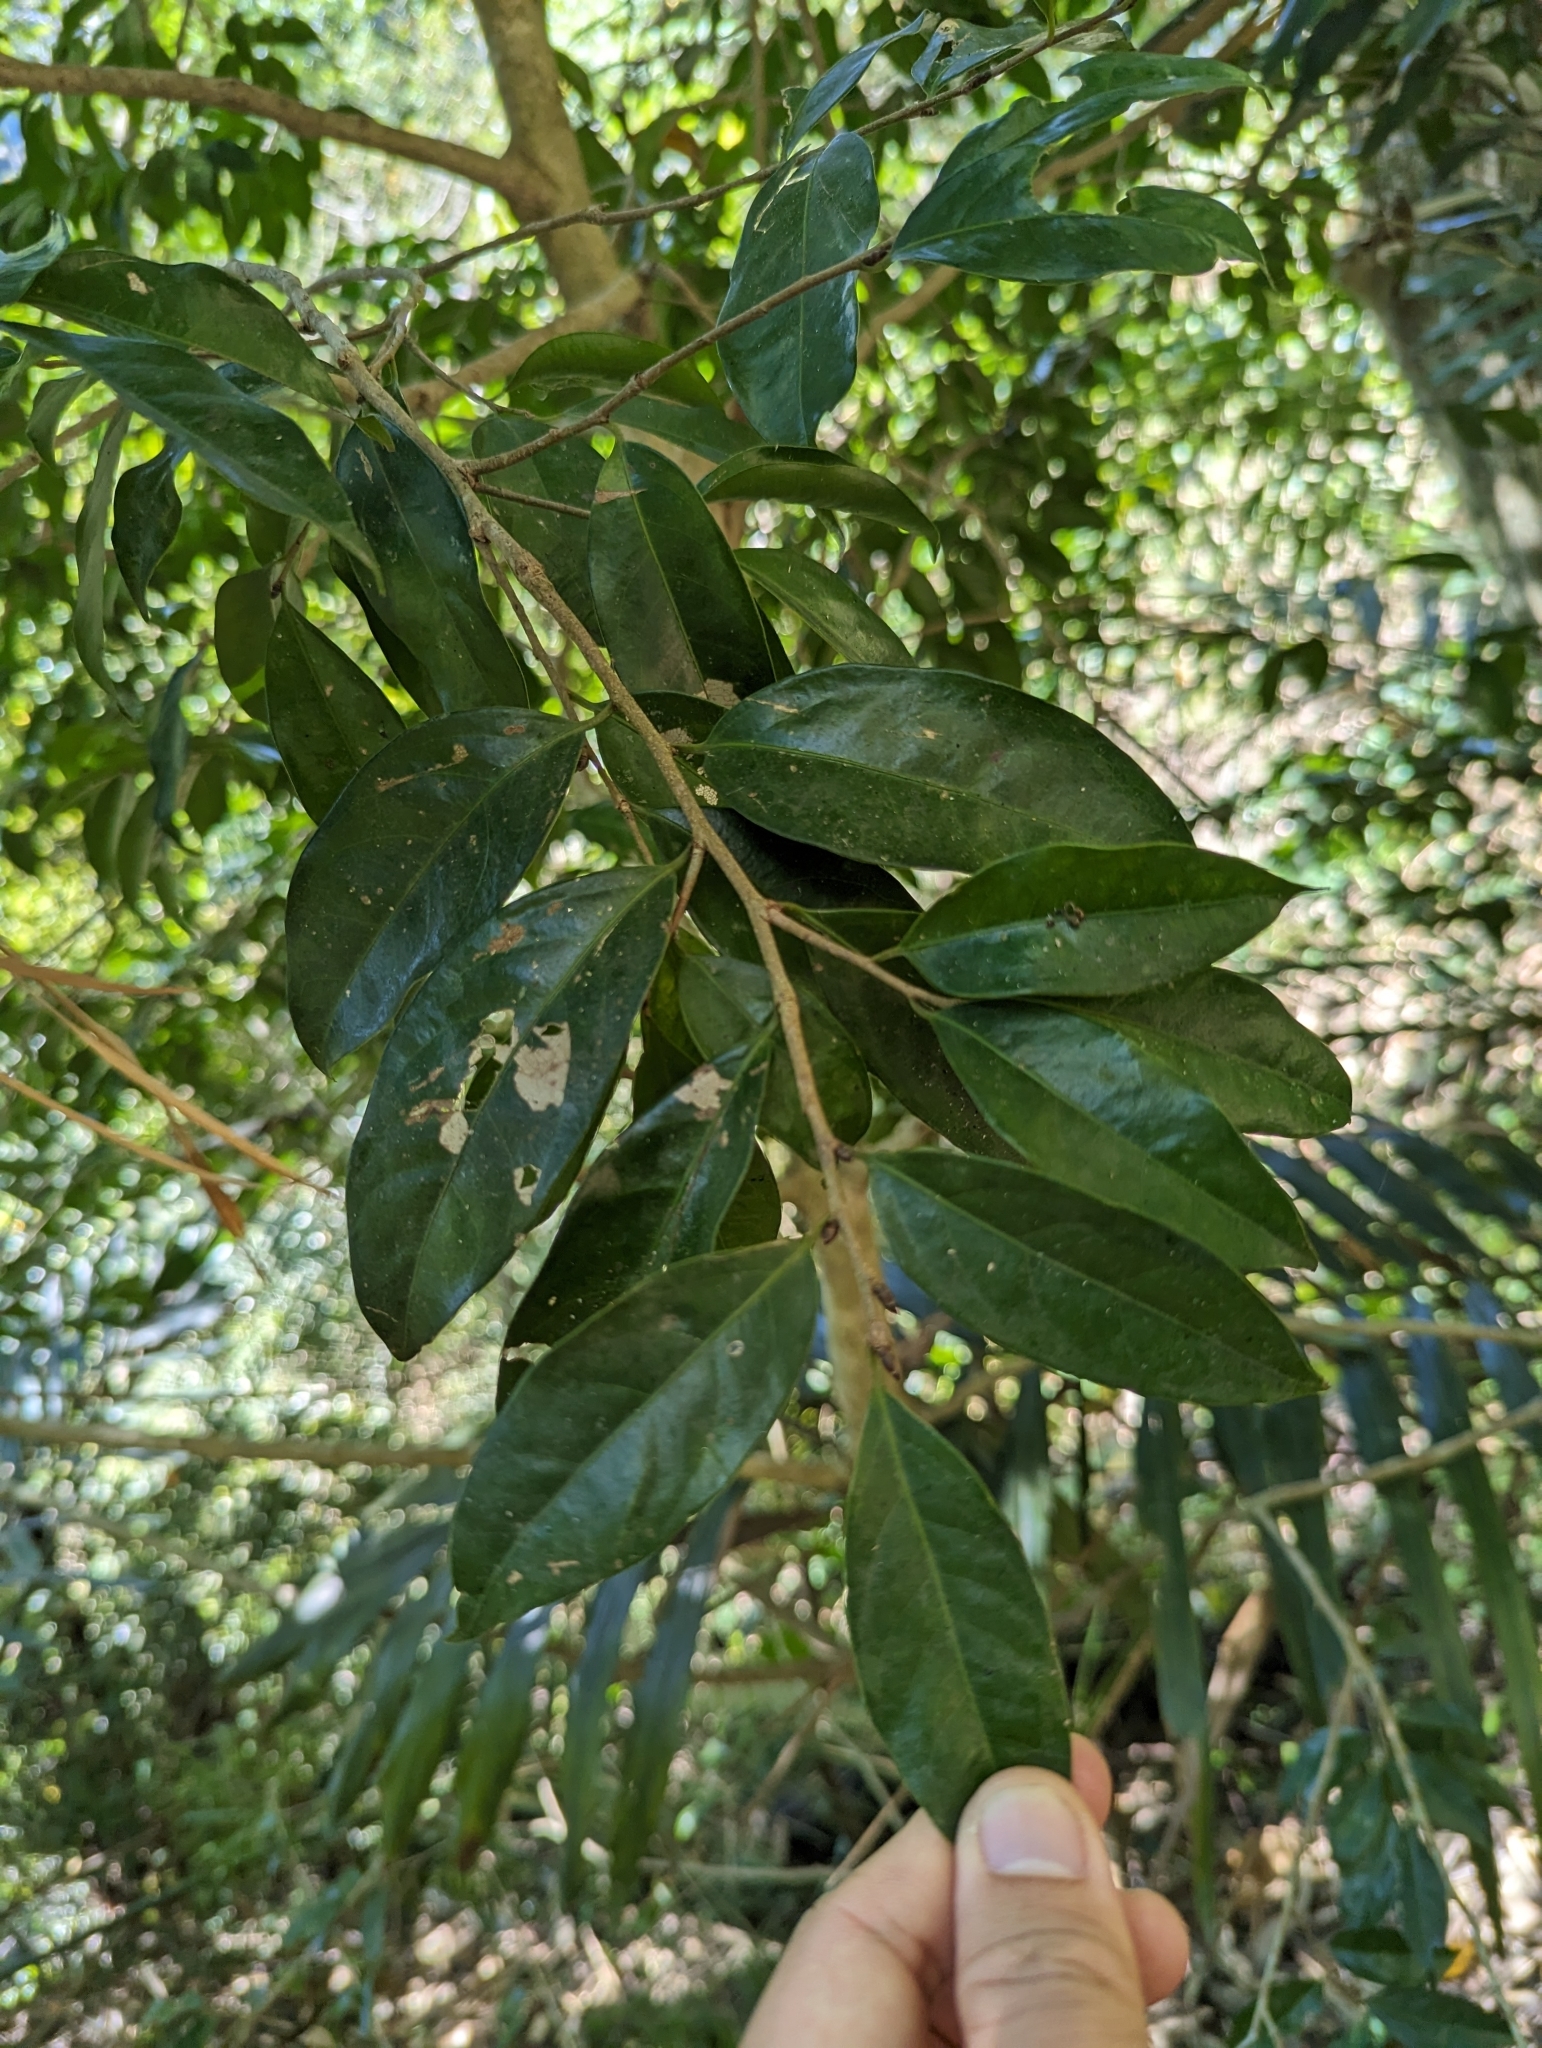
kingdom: Plantae
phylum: Tracheophyta
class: Magnoliopsida
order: Malpighiales
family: Putranjivaceae
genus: Drypetes
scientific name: Drypetes indica
